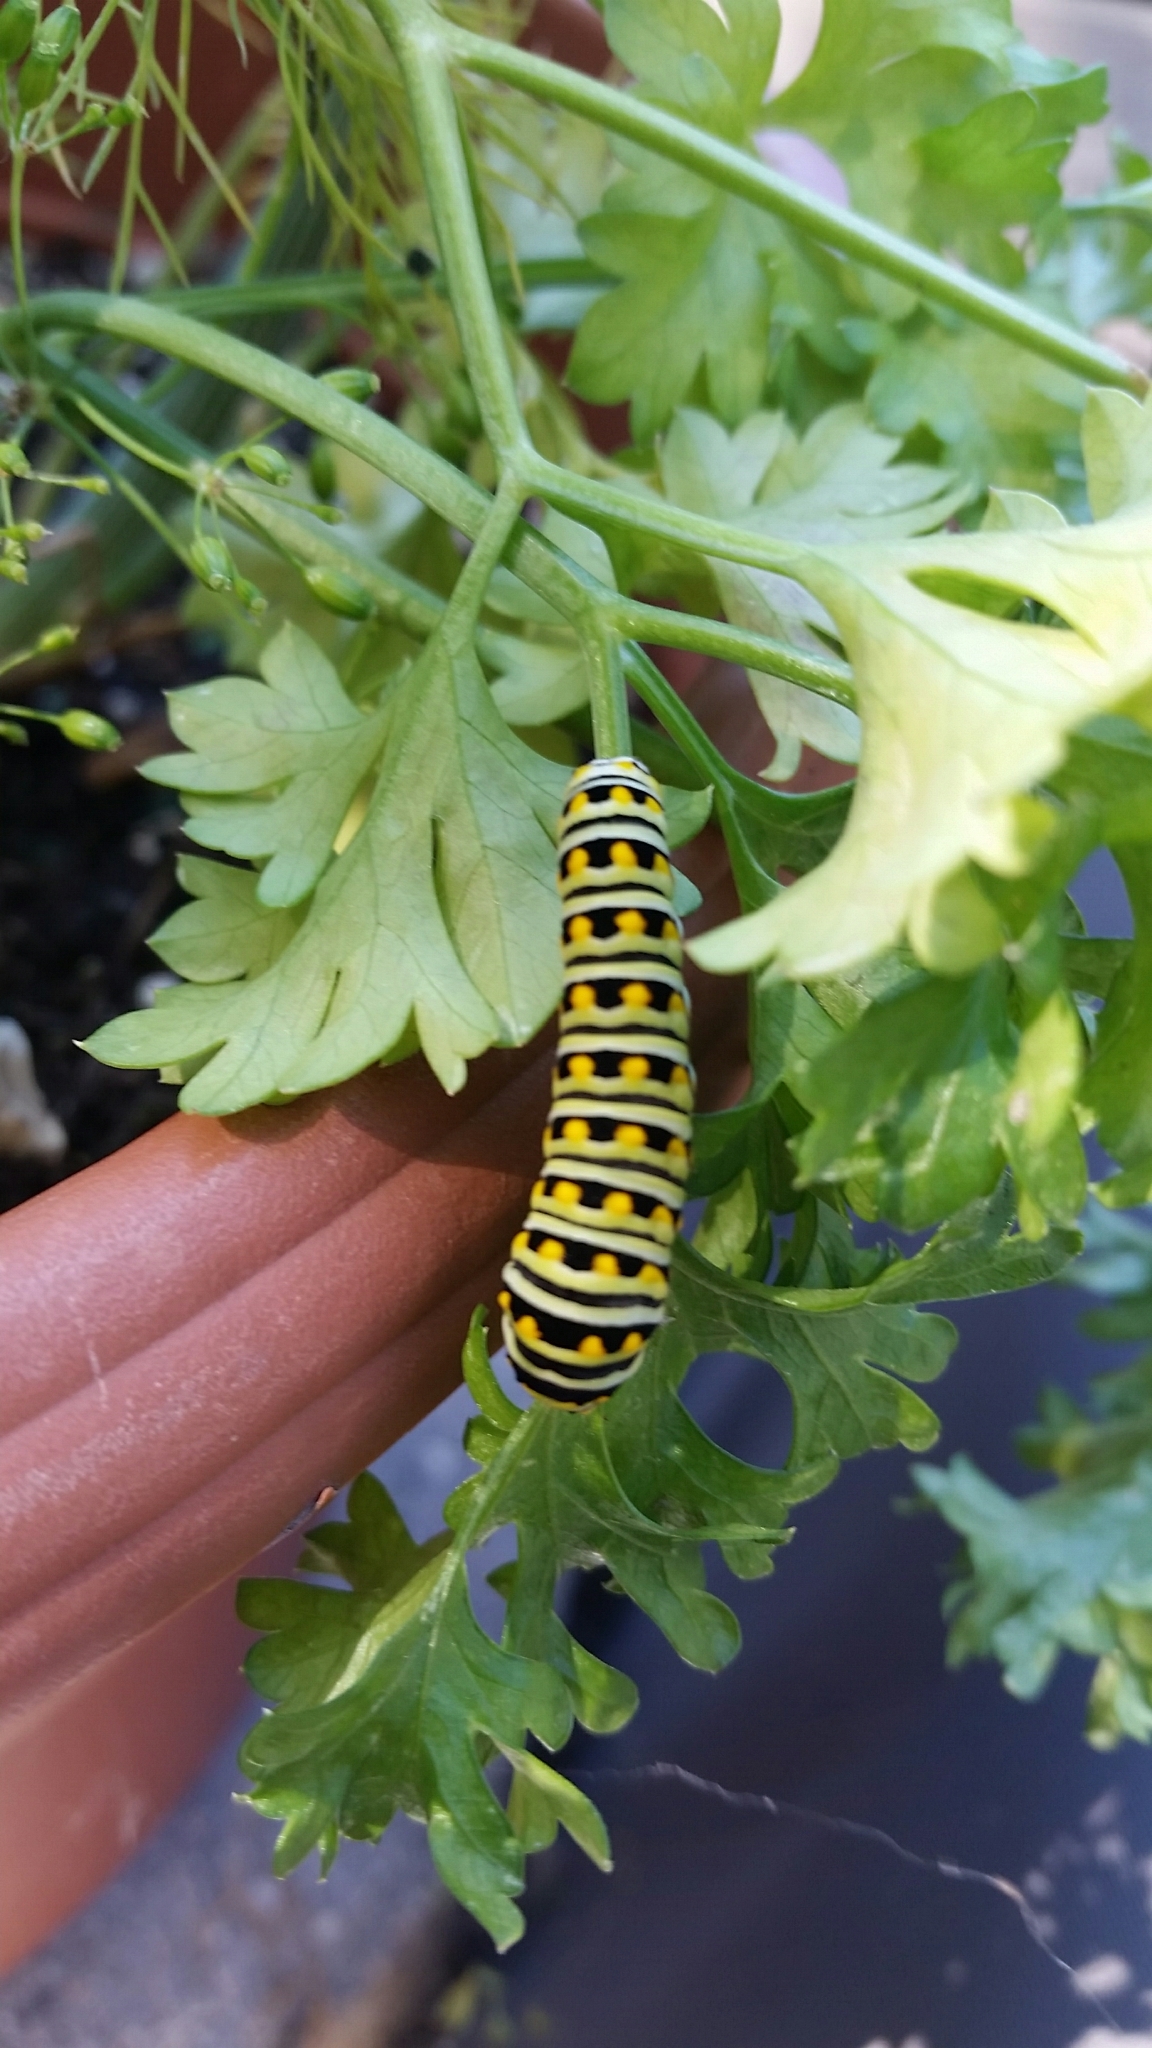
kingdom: Animalia
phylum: Arthropoda
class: Insecta
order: Lepidoptera
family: Papilionidae
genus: Papilio
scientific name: Papilio polyxenes
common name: Black swallowtail
